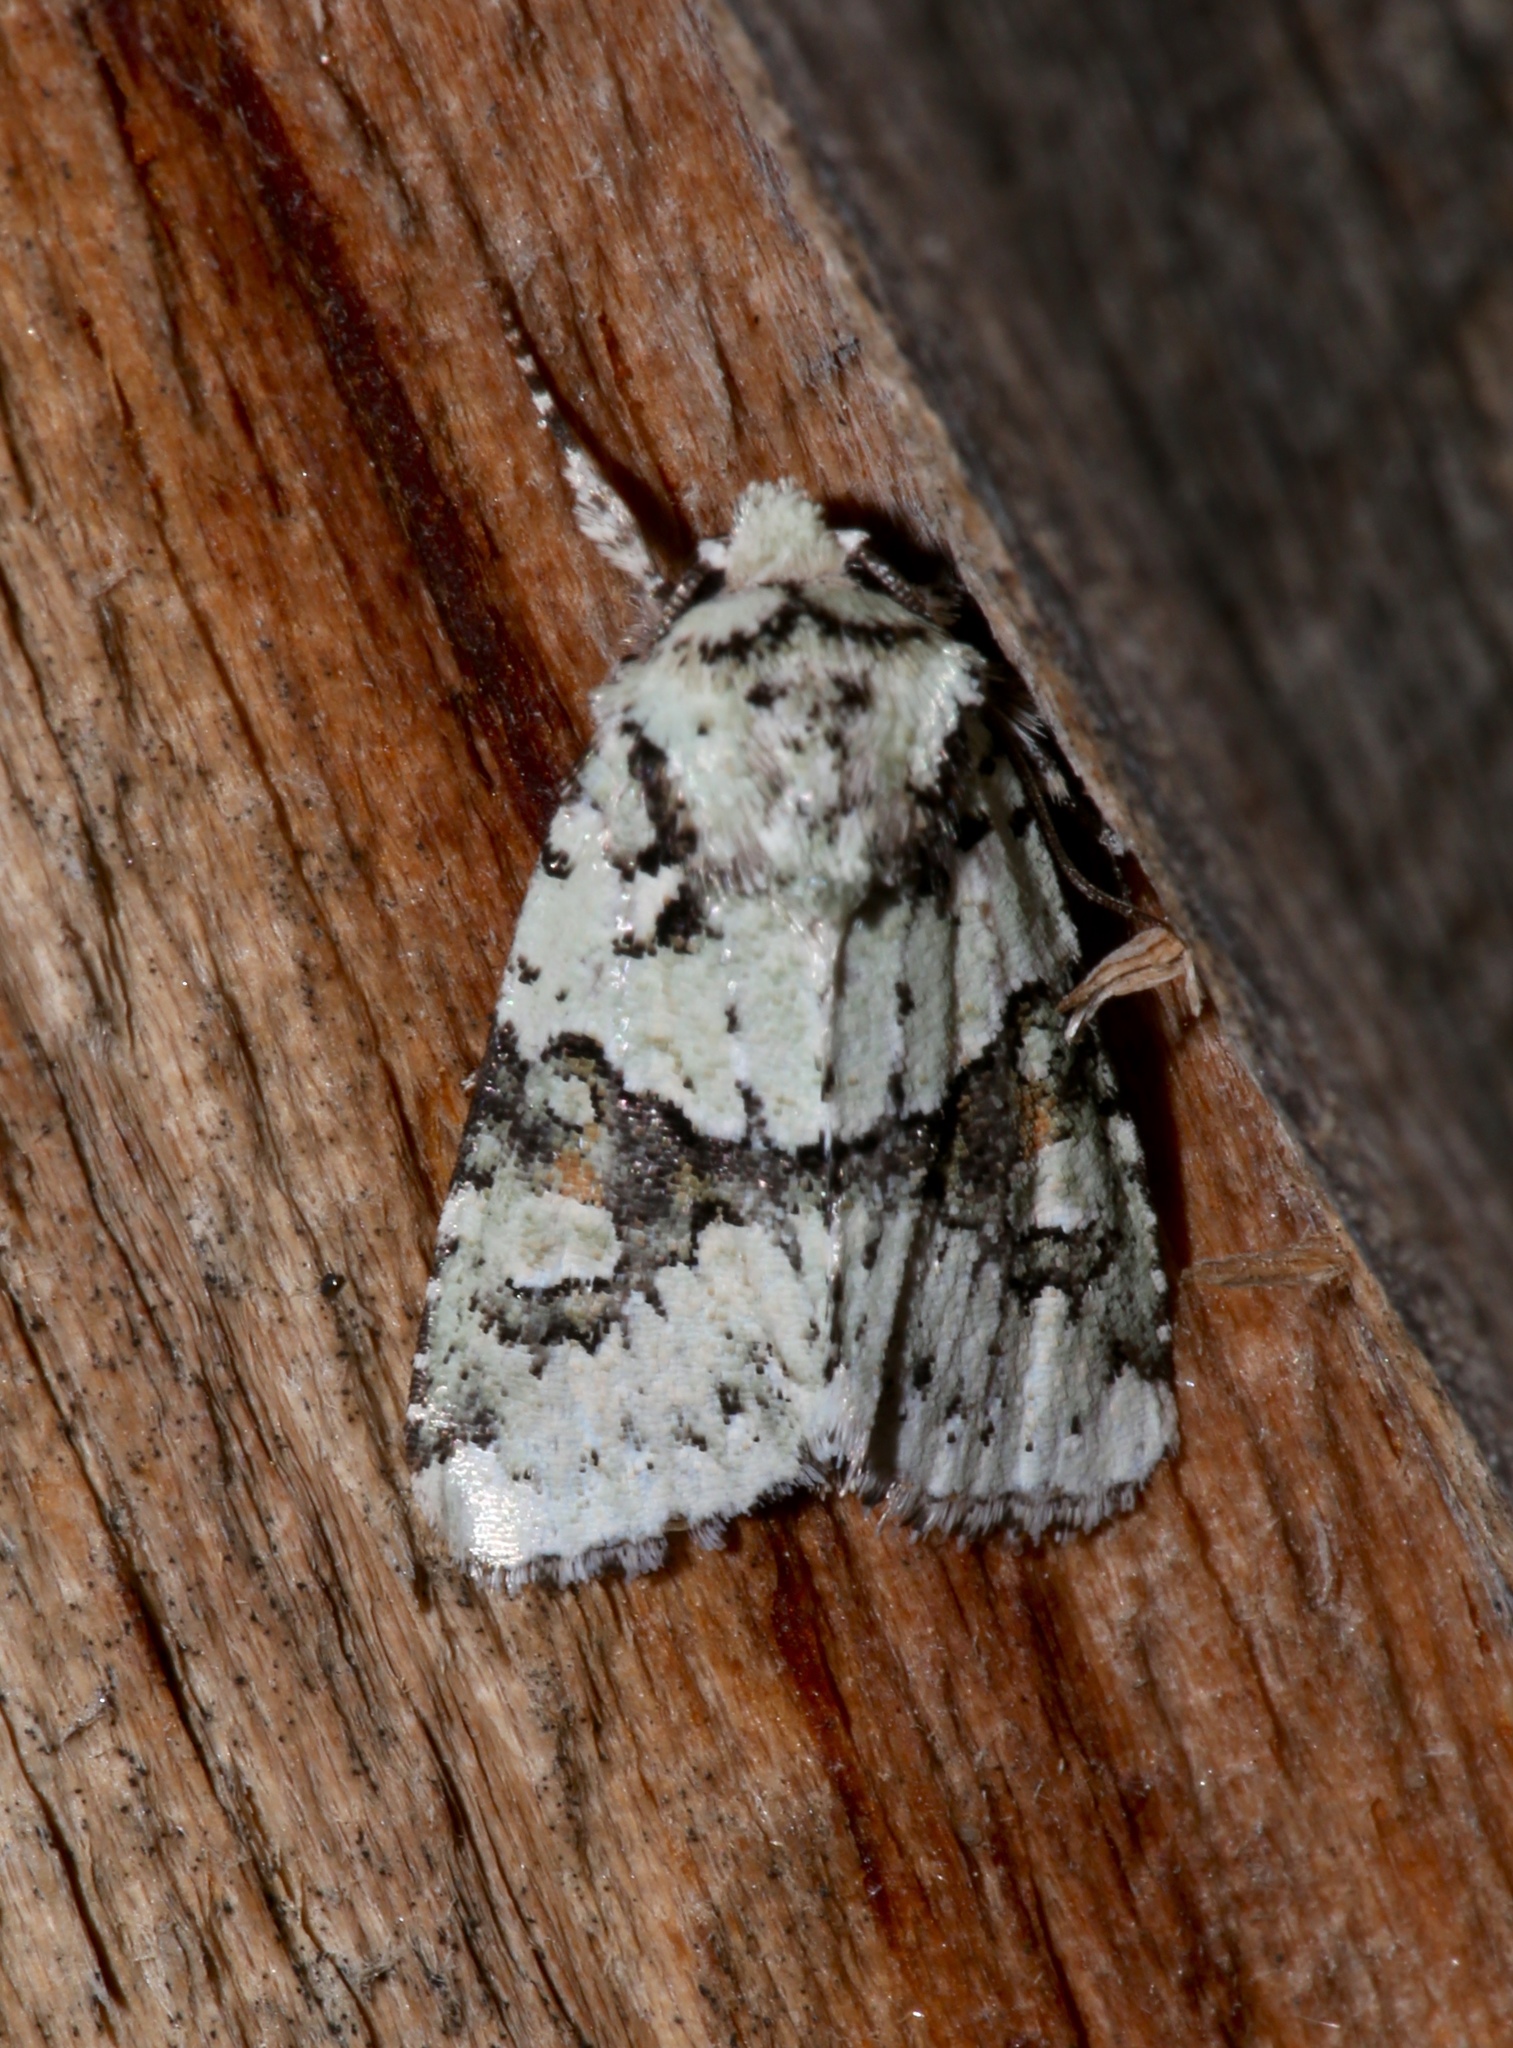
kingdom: Animalia
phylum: Arthropoda
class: Insecta
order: Lepidoptera
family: Noctuidae
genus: Lacinipolia
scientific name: Lacinipolia implicata
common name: Implicit arches
